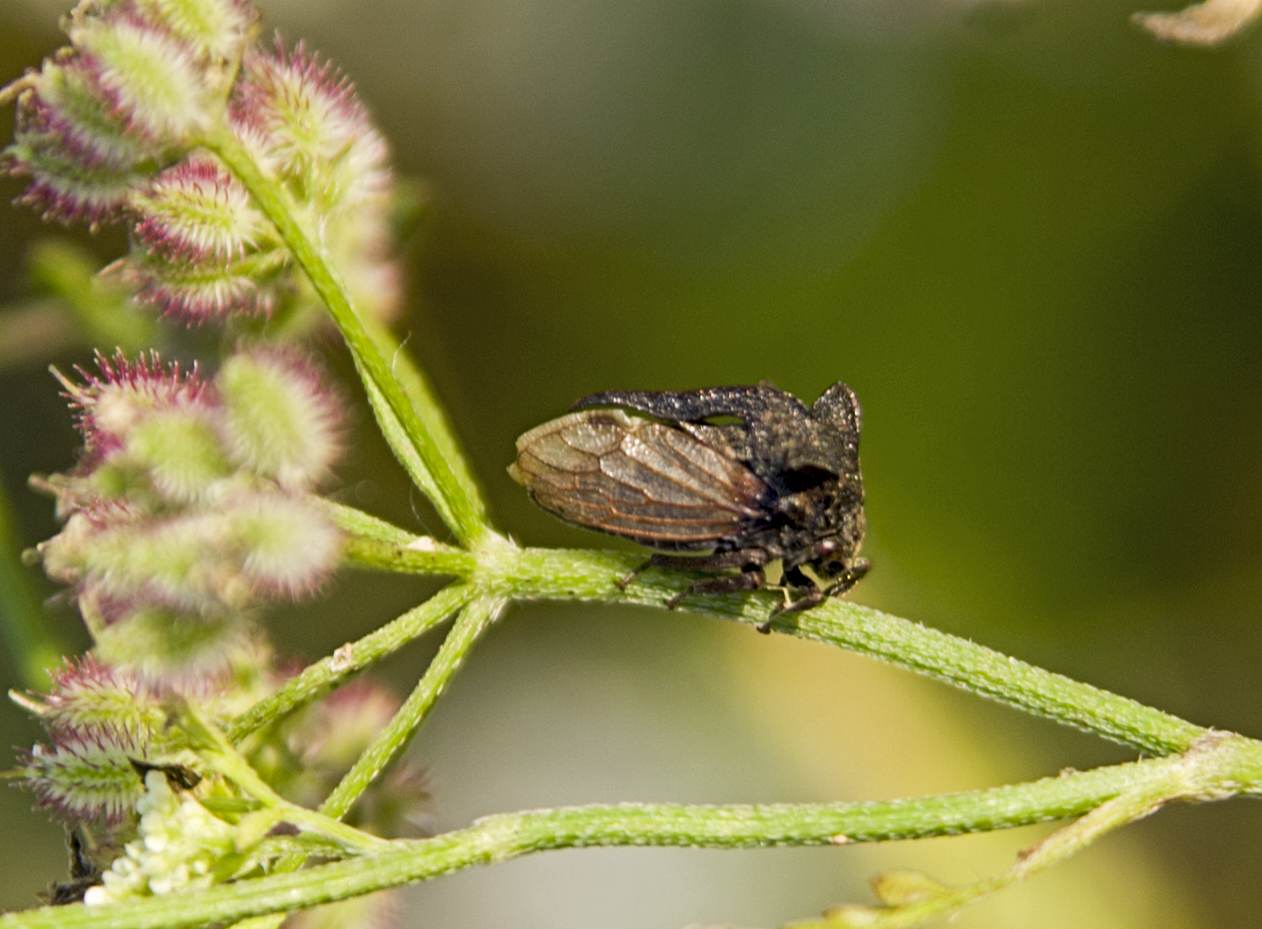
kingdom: Animalia
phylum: Arthropoda
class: Insecta
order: Hemiptera
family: Membracidae
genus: Centrotus
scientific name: Centrotus cornuta
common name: Treehopper
